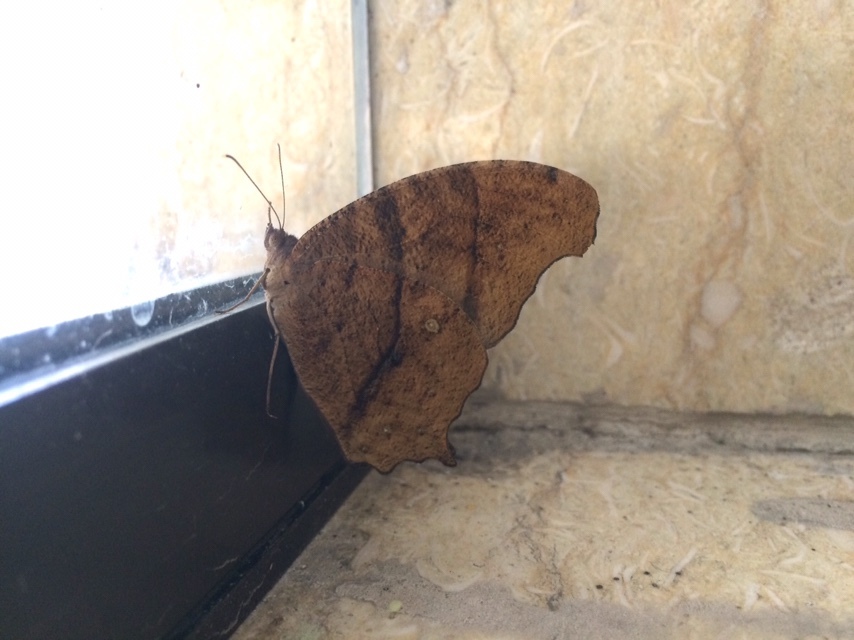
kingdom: Animalia
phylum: Arthropoda
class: Insecta
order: Lepidoptera
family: Nymphalidae
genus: Melanitis
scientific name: Melanitis leda
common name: Twilight brown
